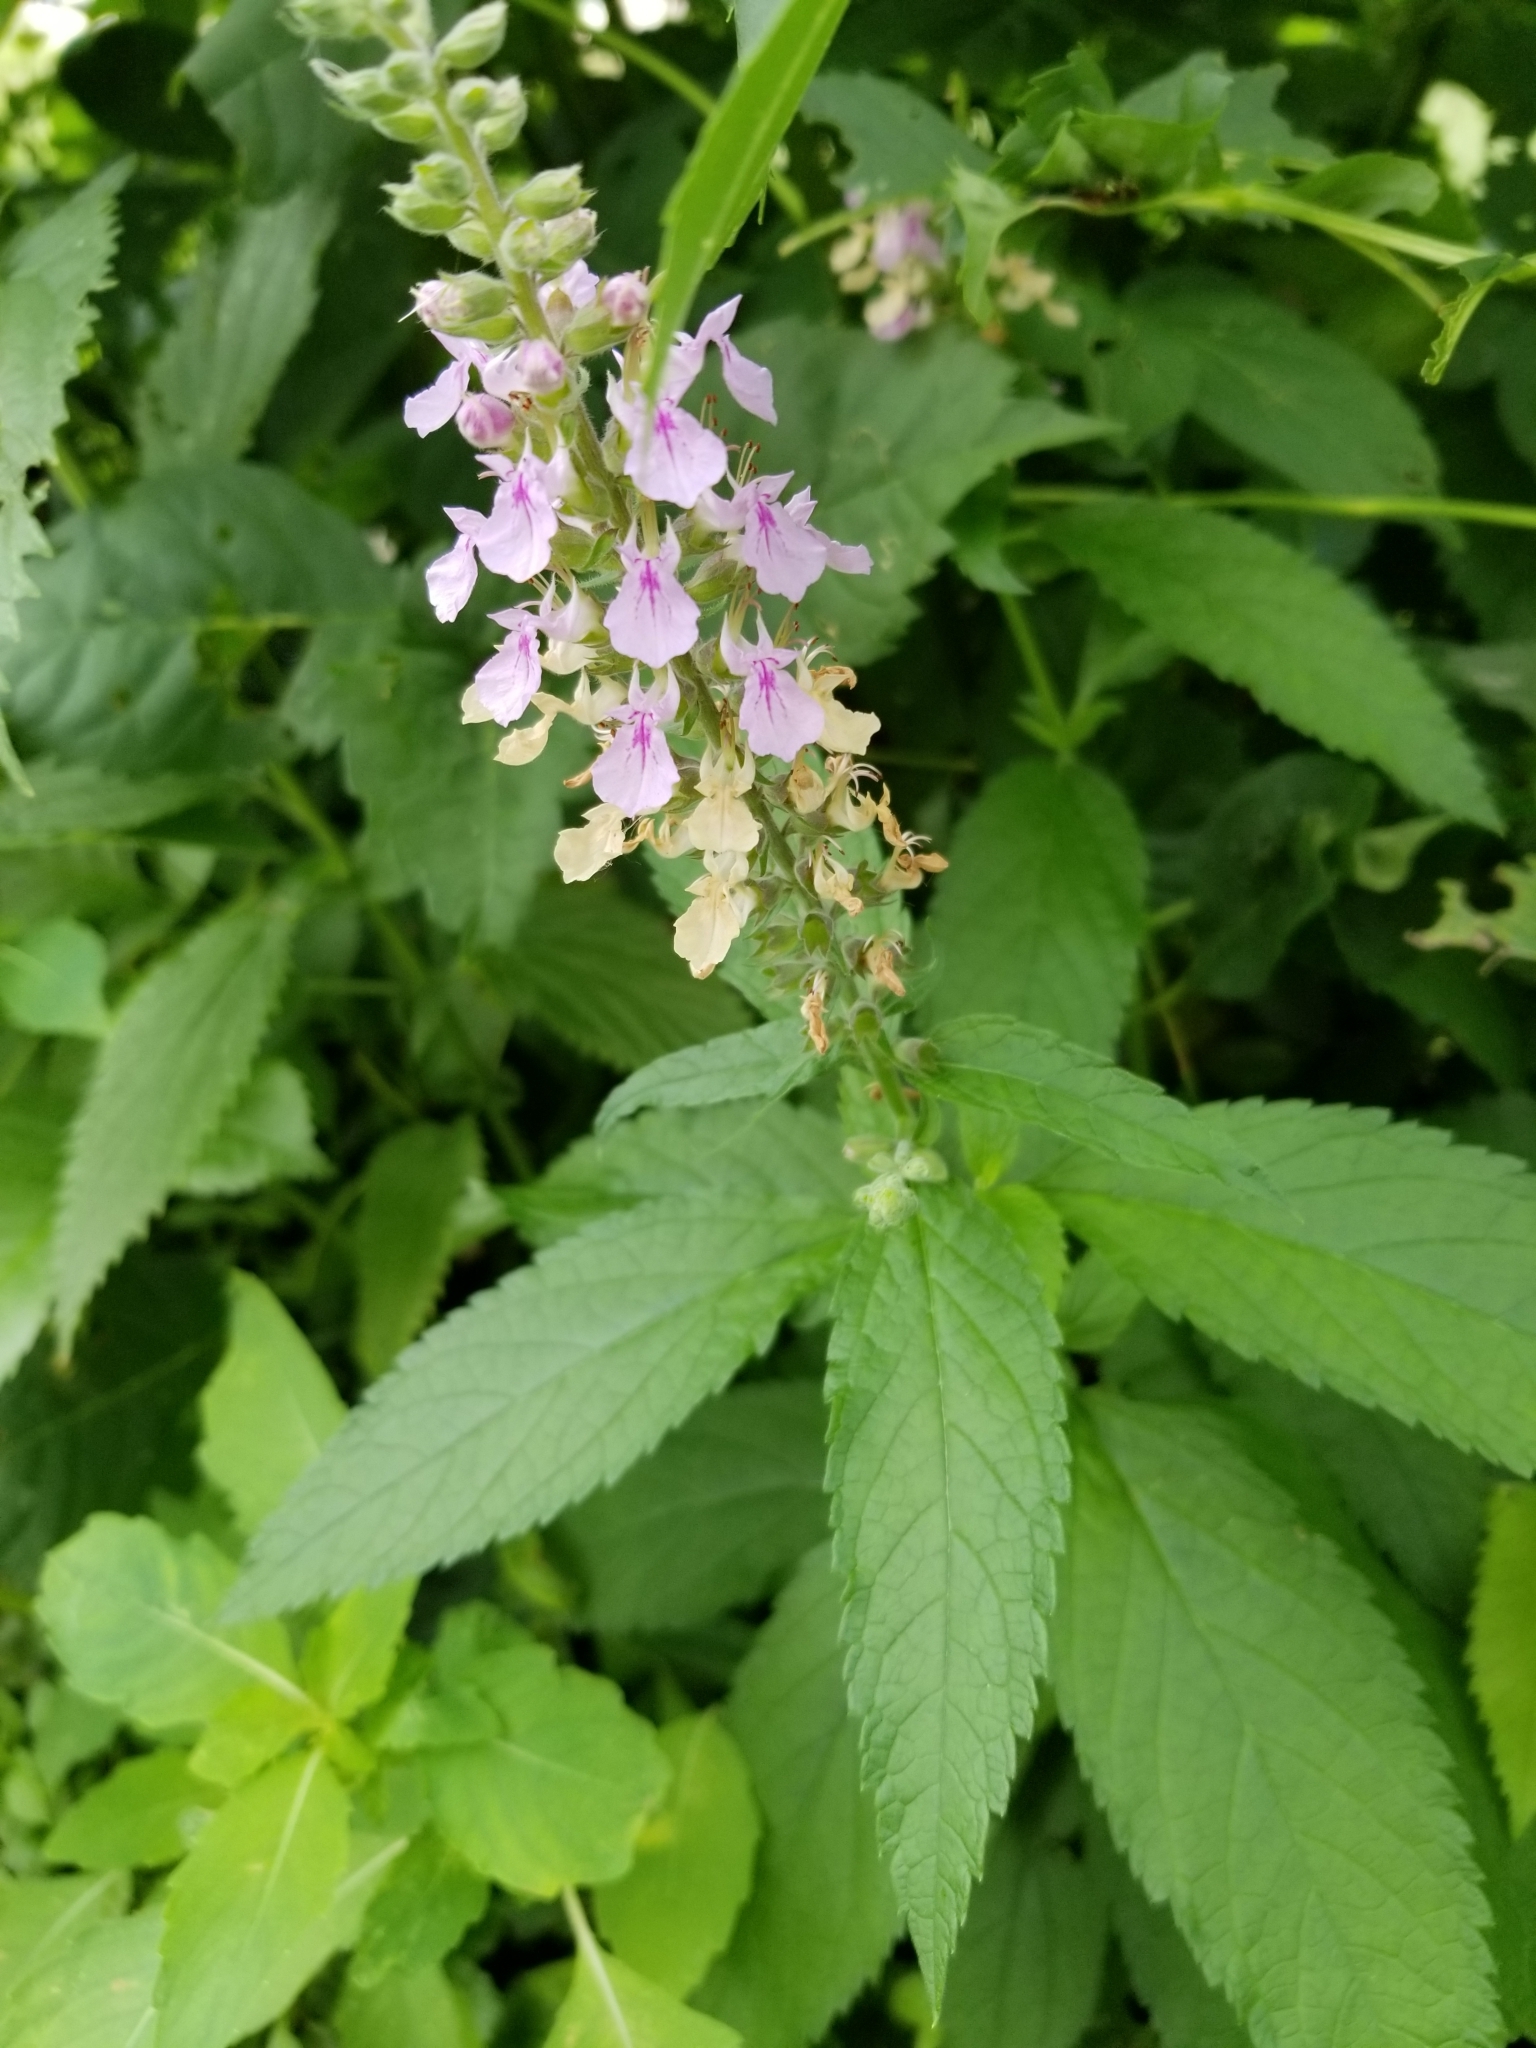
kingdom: Plantae
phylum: Tracheophyta
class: Magnoliopsida
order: Lamiales
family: Lamiaceae
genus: Teucrium
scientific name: Teucrium canadense
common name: American germander
